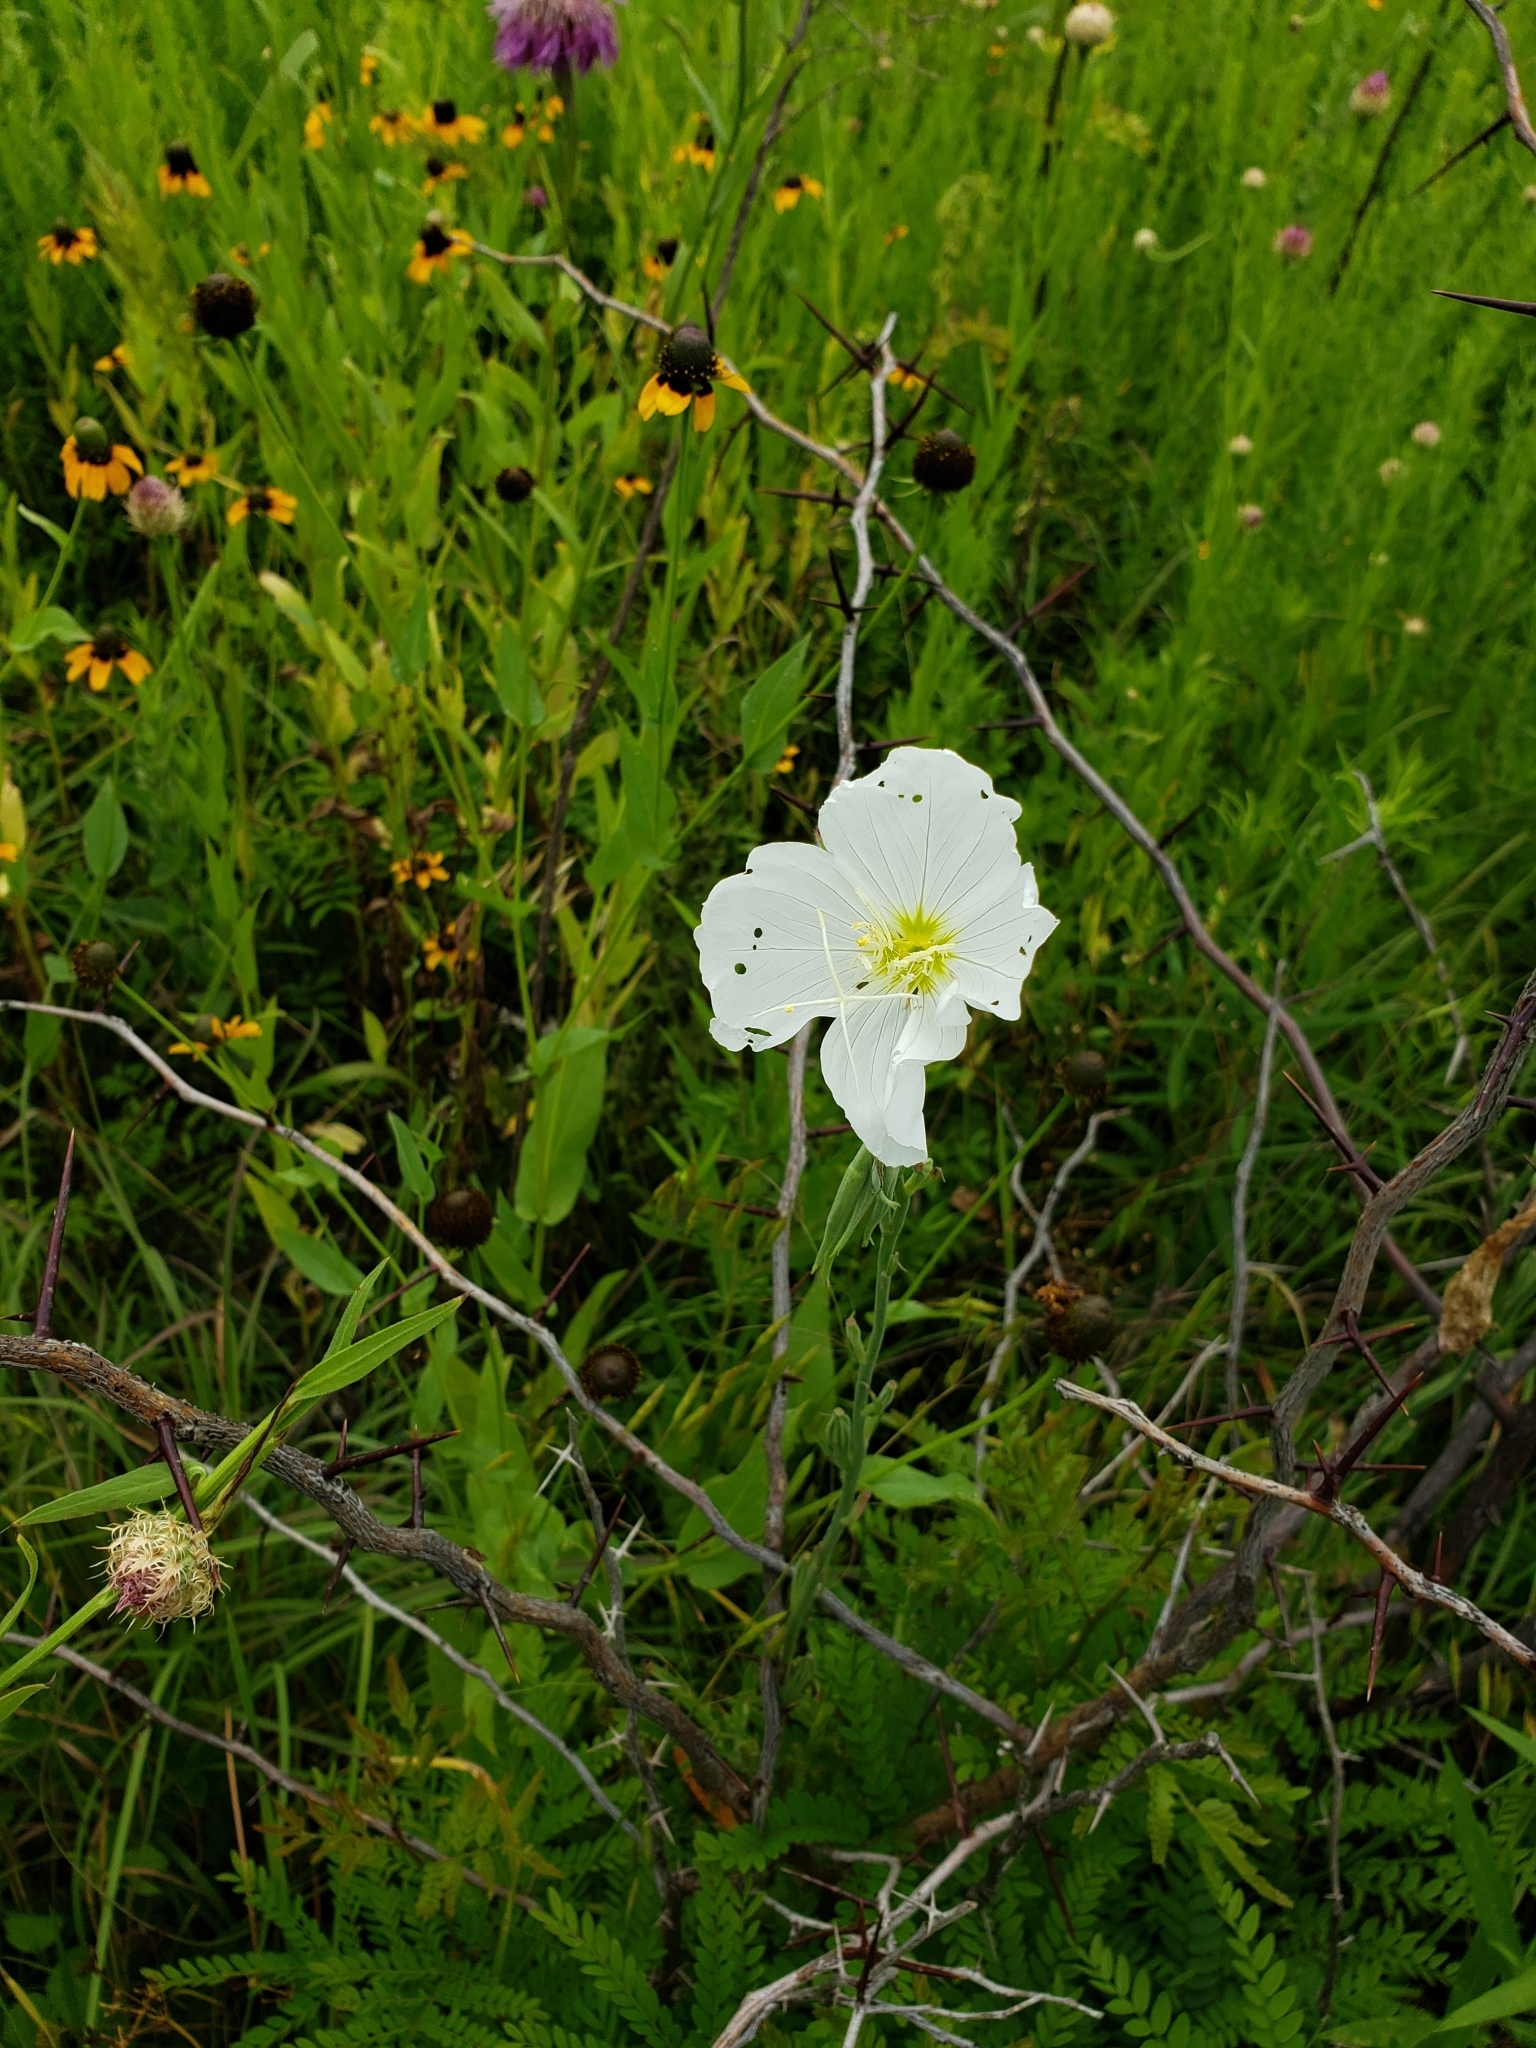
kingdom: Plantae
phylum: Tracheophyta
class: Magnoliopsida
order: Myrtales
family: Onagraceae
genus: Oenothera
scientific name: Oenothera speciosa
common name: White evening-primrose
